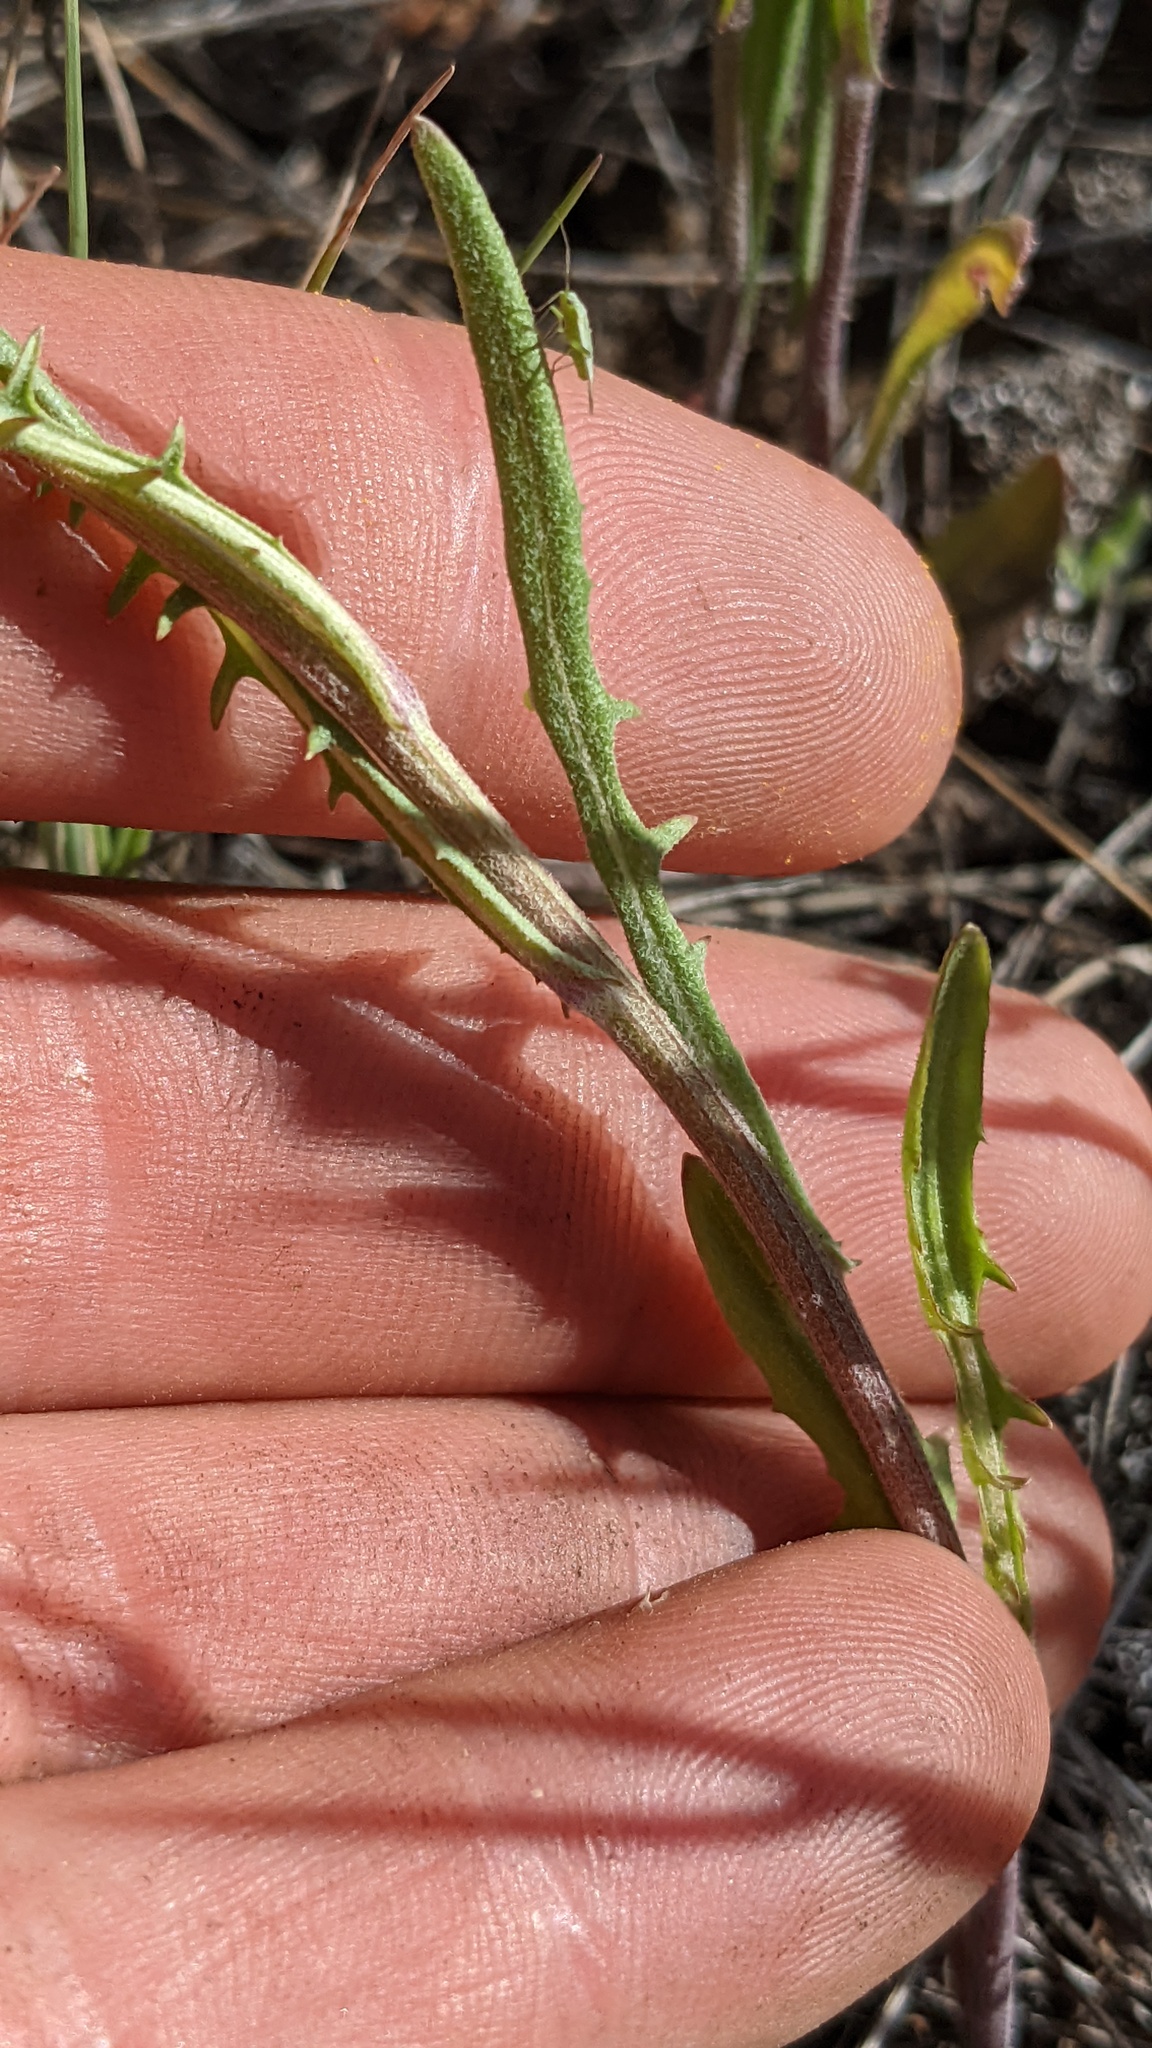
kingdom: Plantae
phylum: Tracheophyta
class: Magnoliopsida
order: Asterales
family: Asteraceae
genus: Crepis
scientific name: Crepis tectorum
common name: Narrow-leaved hawk's-beard
